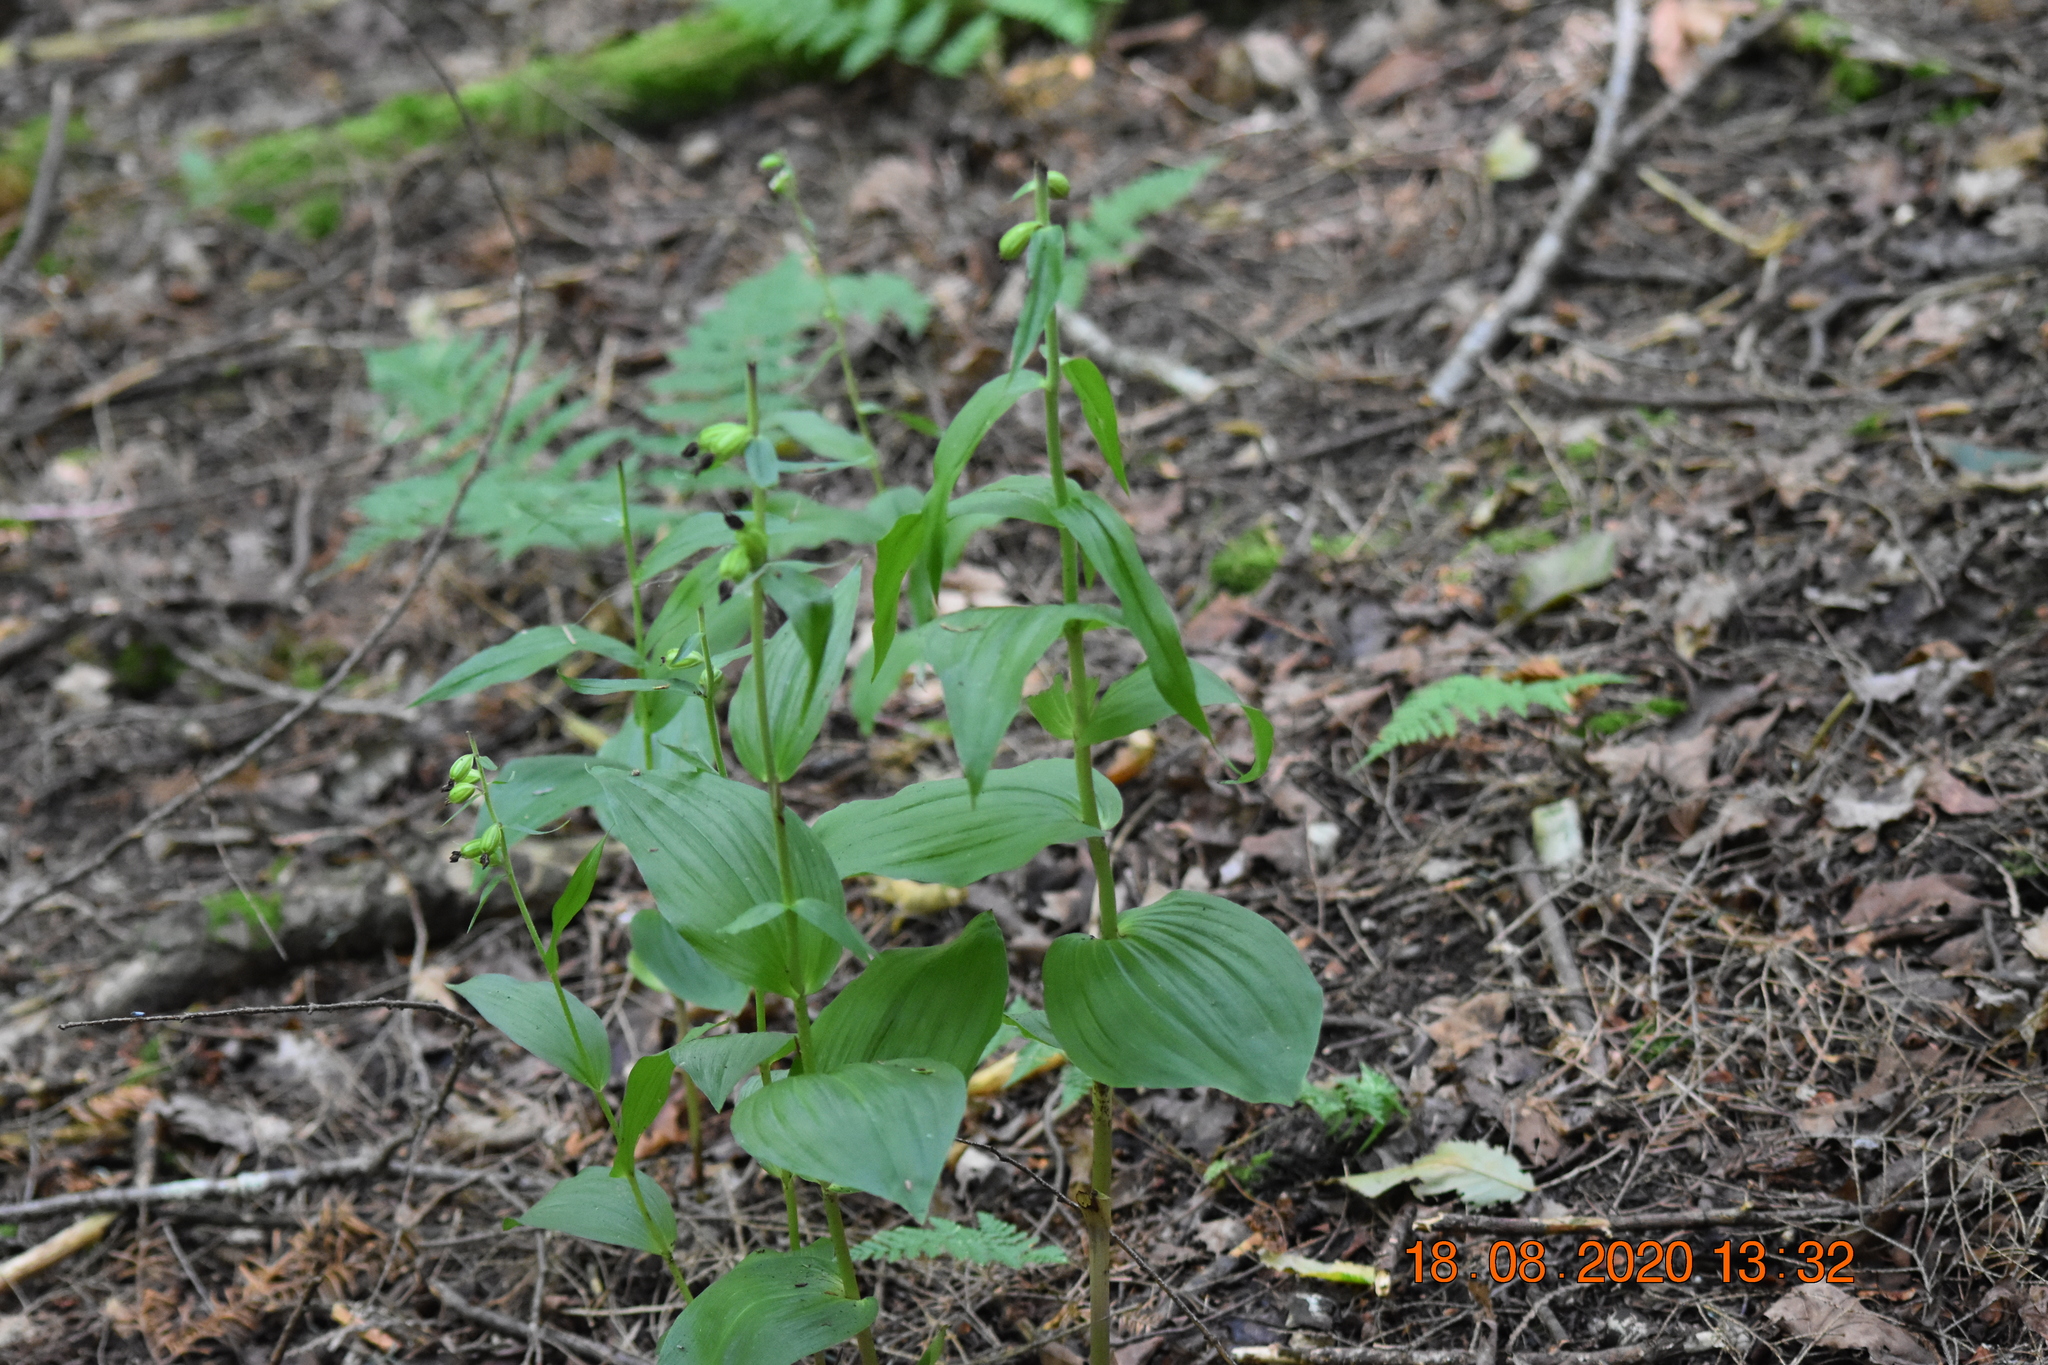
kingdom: Plantae
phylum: Tracheophyta
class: Liliopsida
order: Asparagales
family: Orchidaceae
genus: Epipactis
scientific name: Epipactis helleborine
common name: Broad-leaved helleborine
